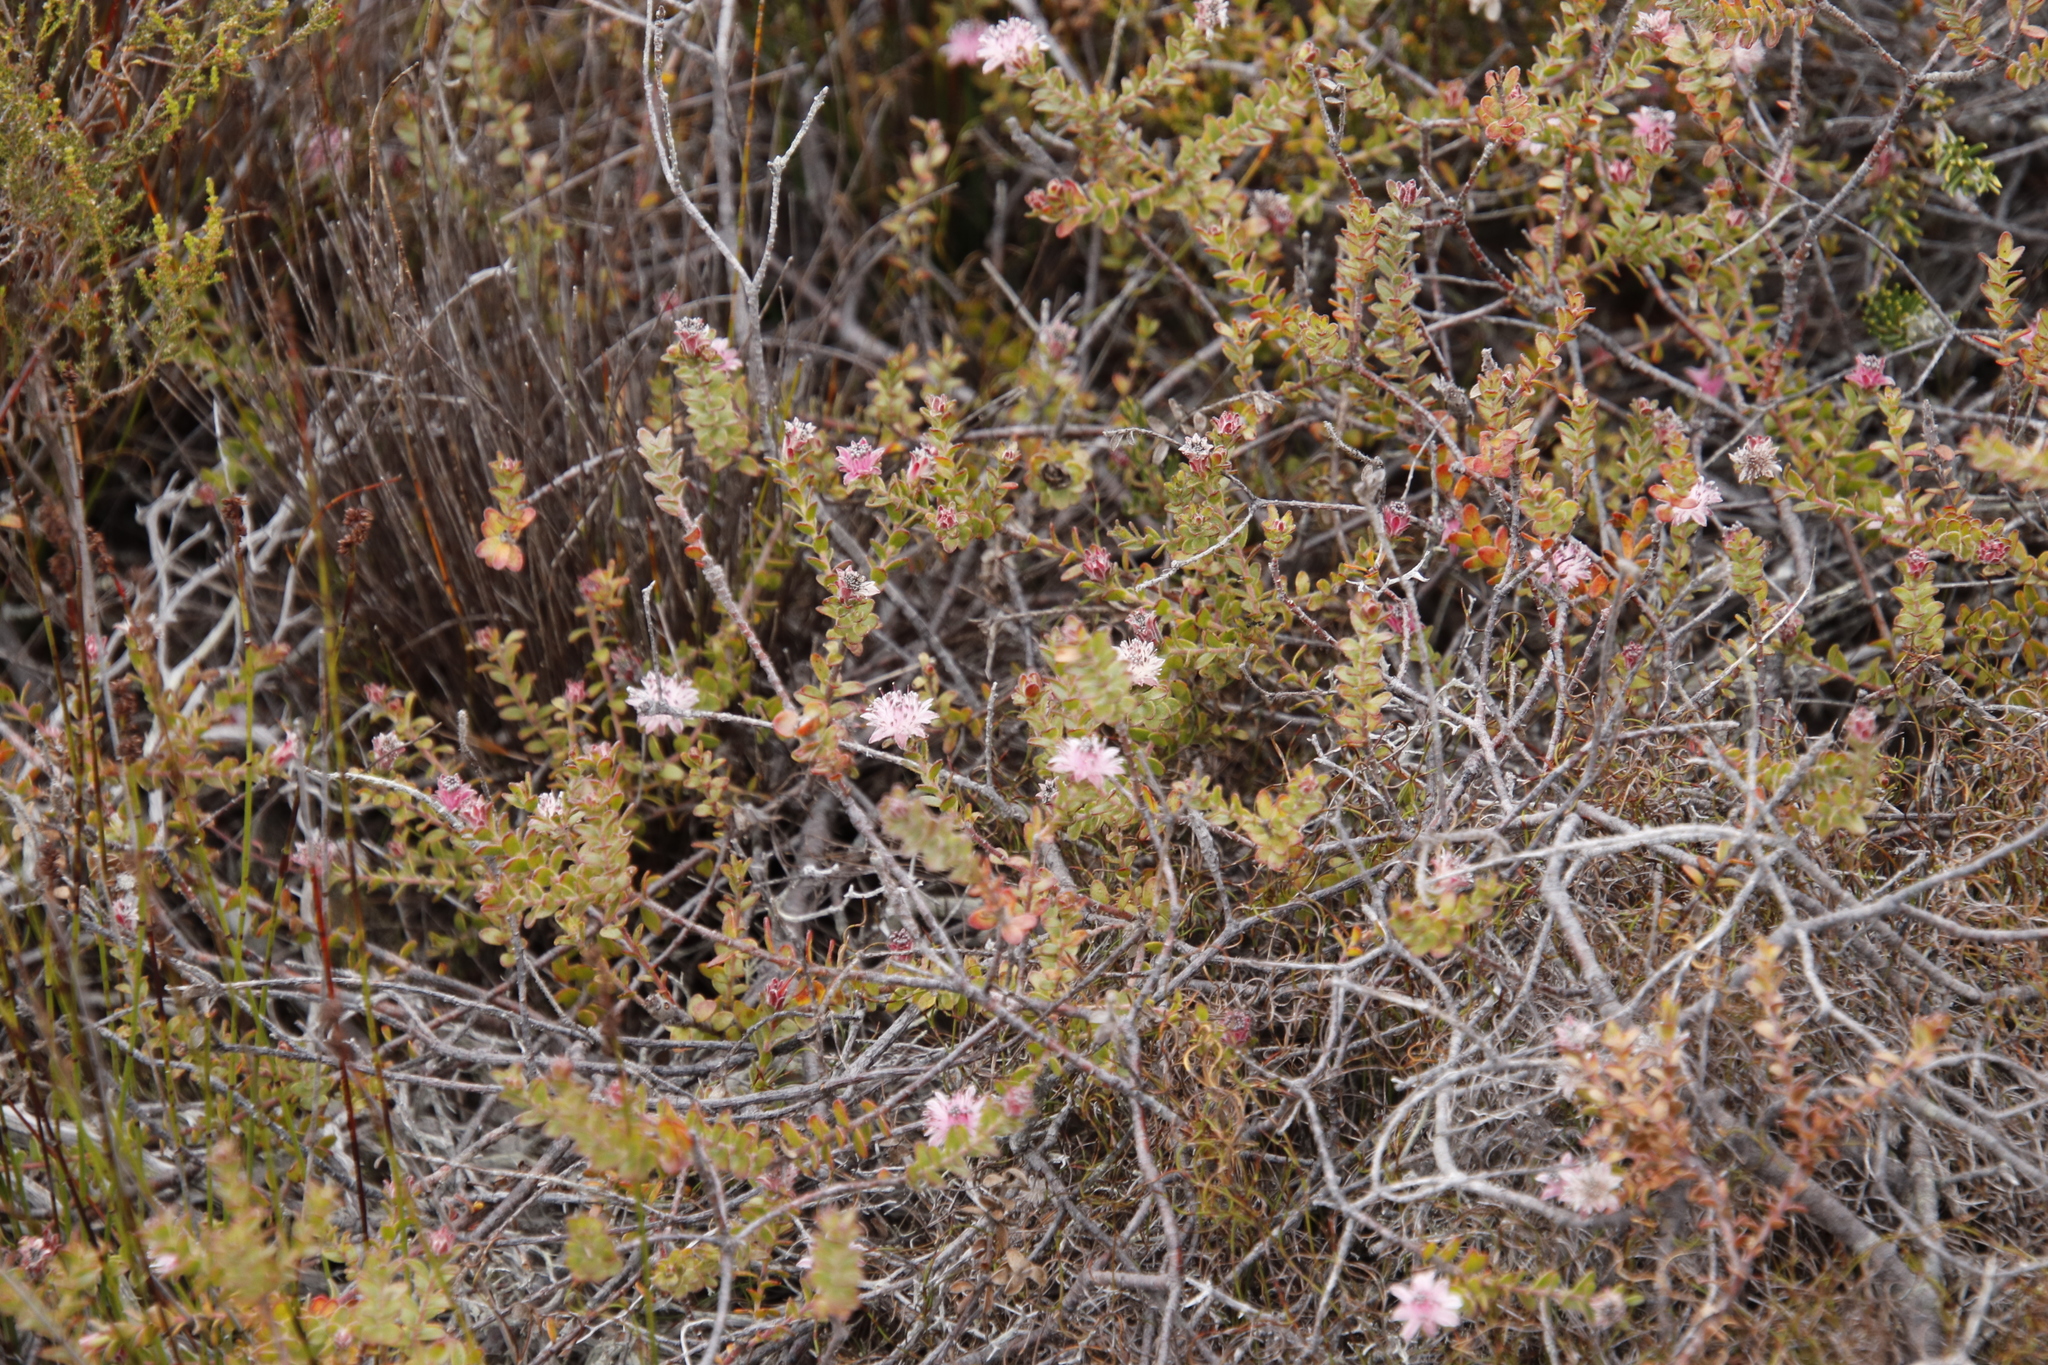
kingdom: Plantae
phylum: Tracheophyta
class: Magnoliopsida
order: Proteales
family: Proteaceae
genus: Diastella
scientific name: Diastella divaricata
